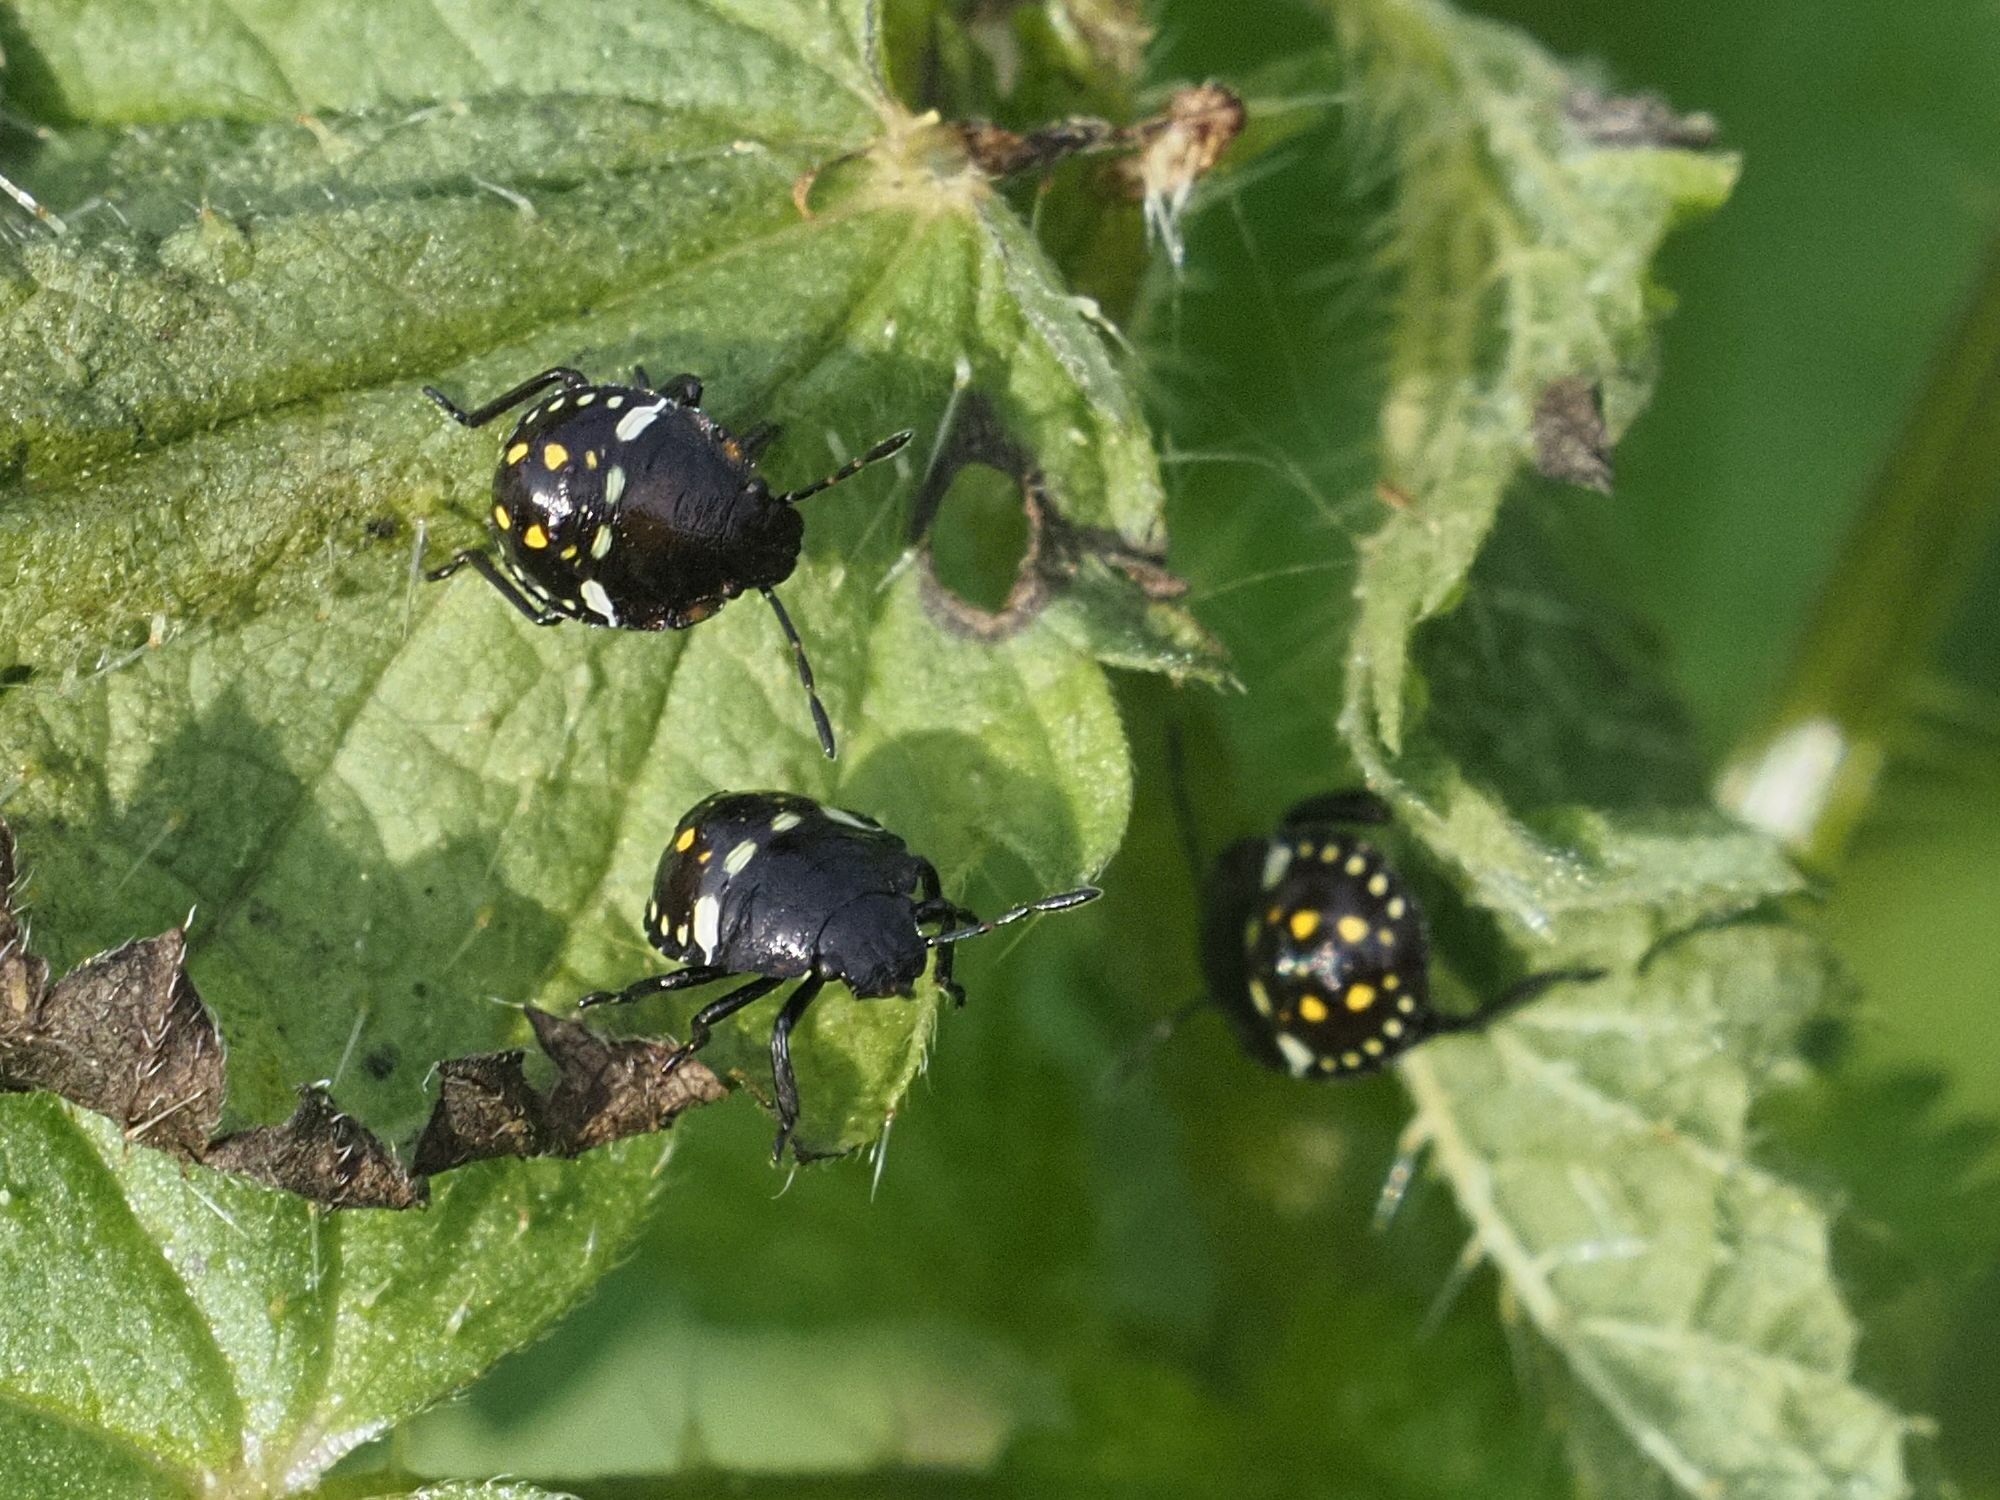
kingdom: Animalia
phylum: Arthropoda
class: Insecta
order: Hemiptera
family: Pentatomidae
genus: Nezara
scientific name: Nezara viridula
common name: Southern green stink bug
